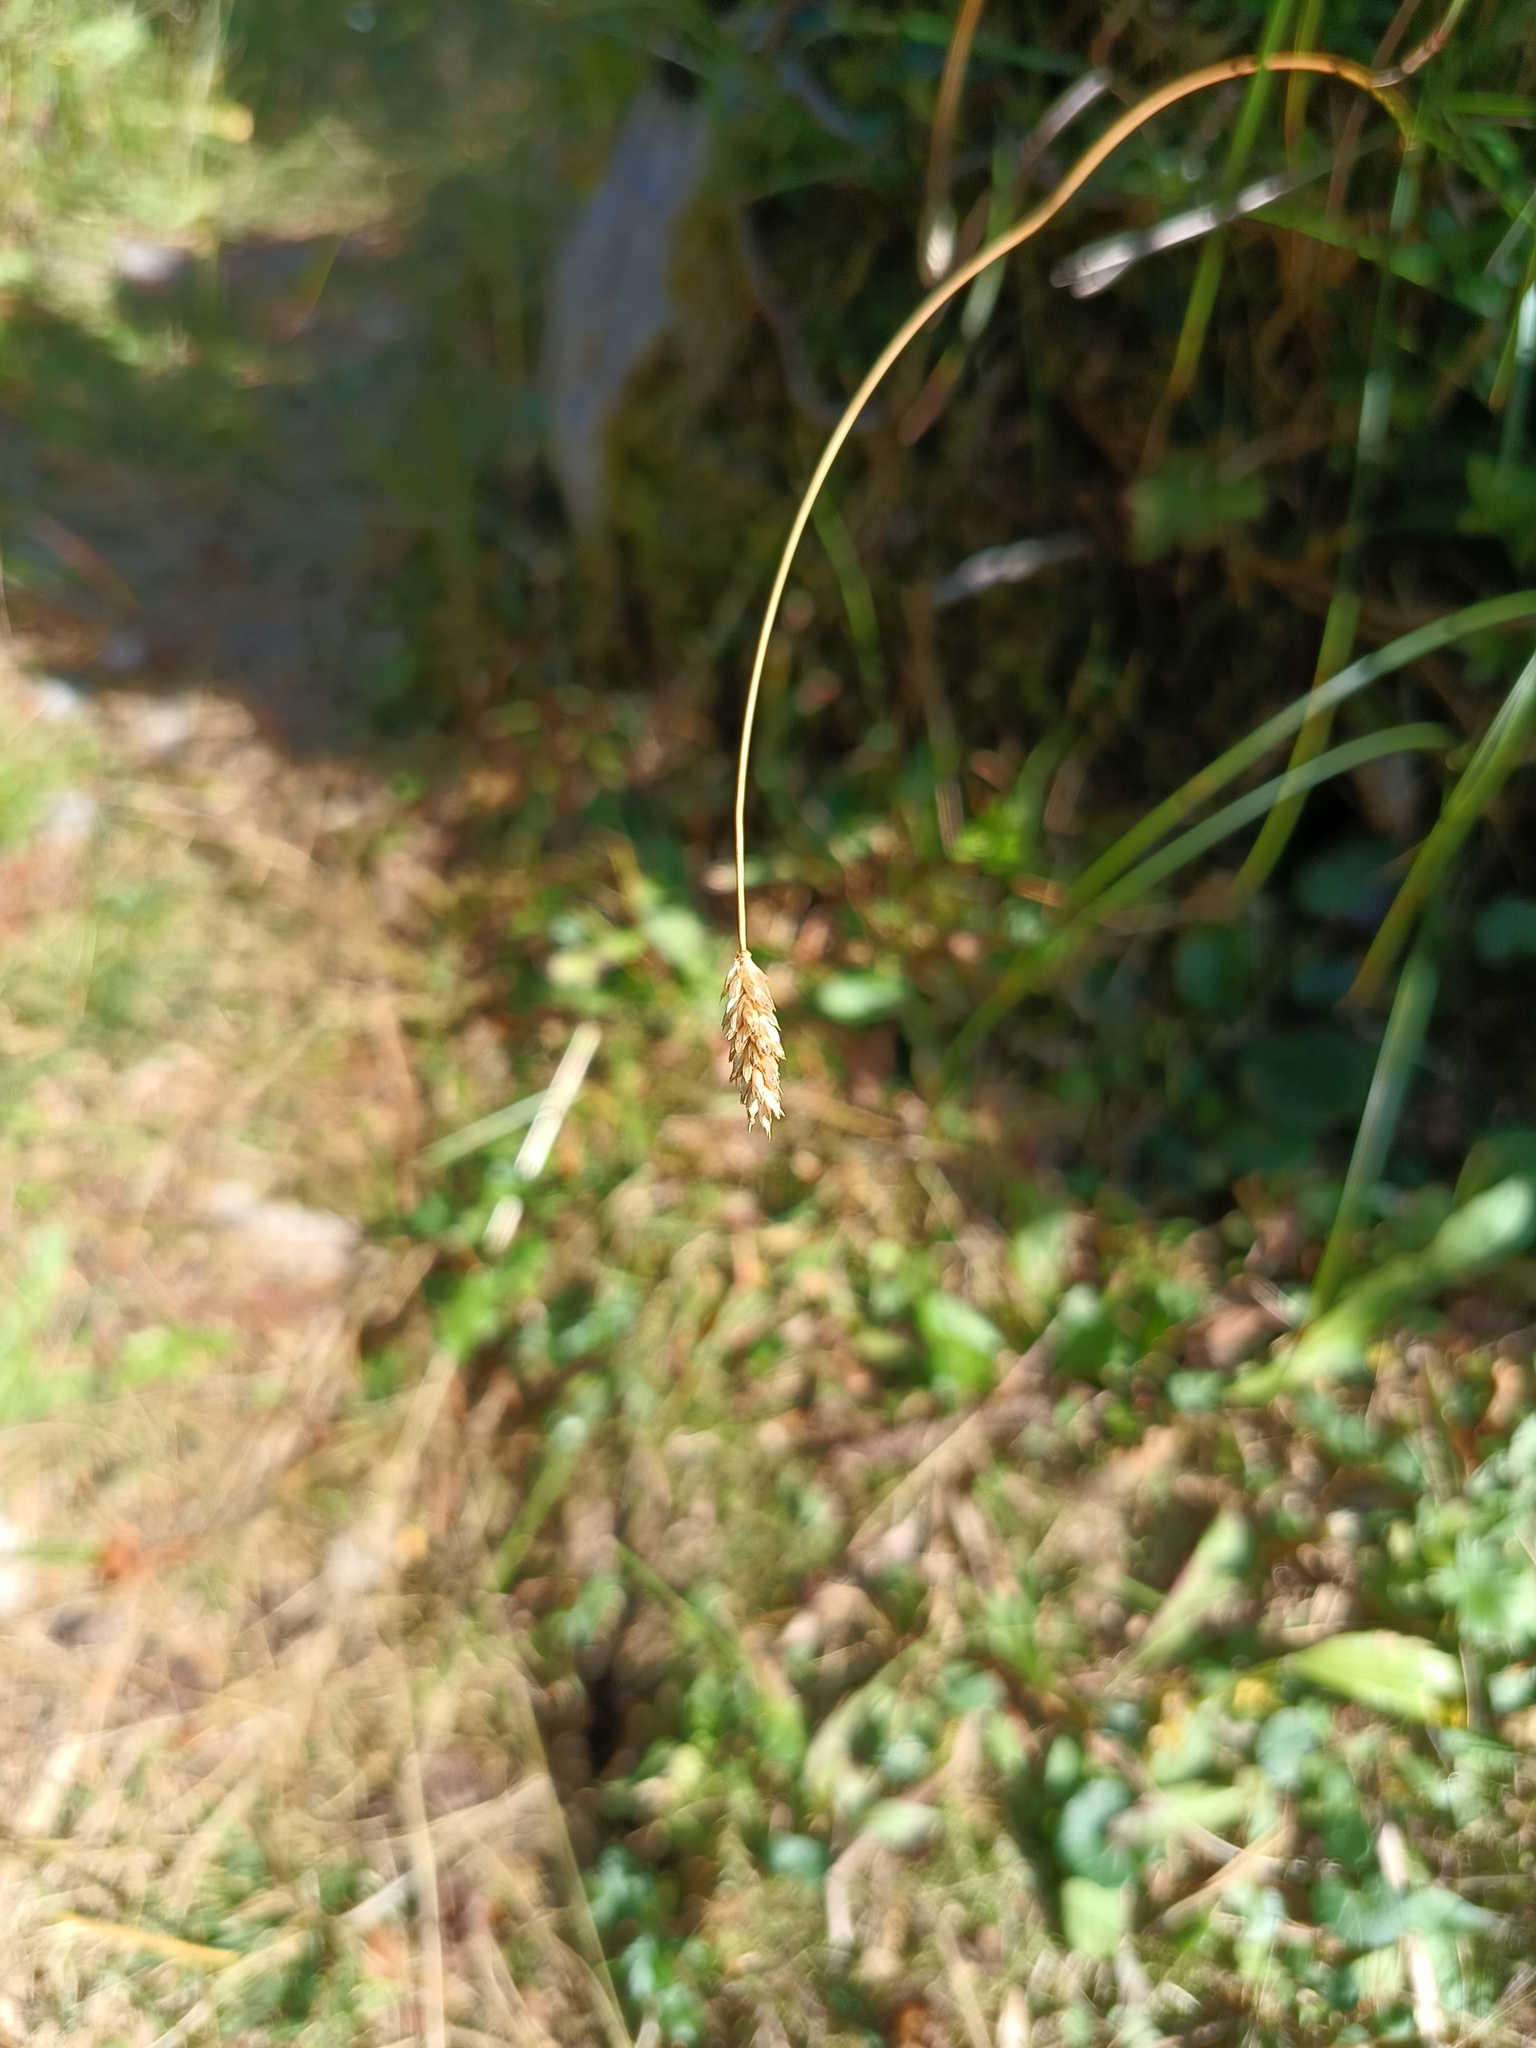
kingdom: Plantae
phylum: Tracheophyta
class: Liliopsida
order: Poales
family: Poaceae
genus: Sesleria
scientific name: Sesleria caerulea
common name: Blue moor-grass
